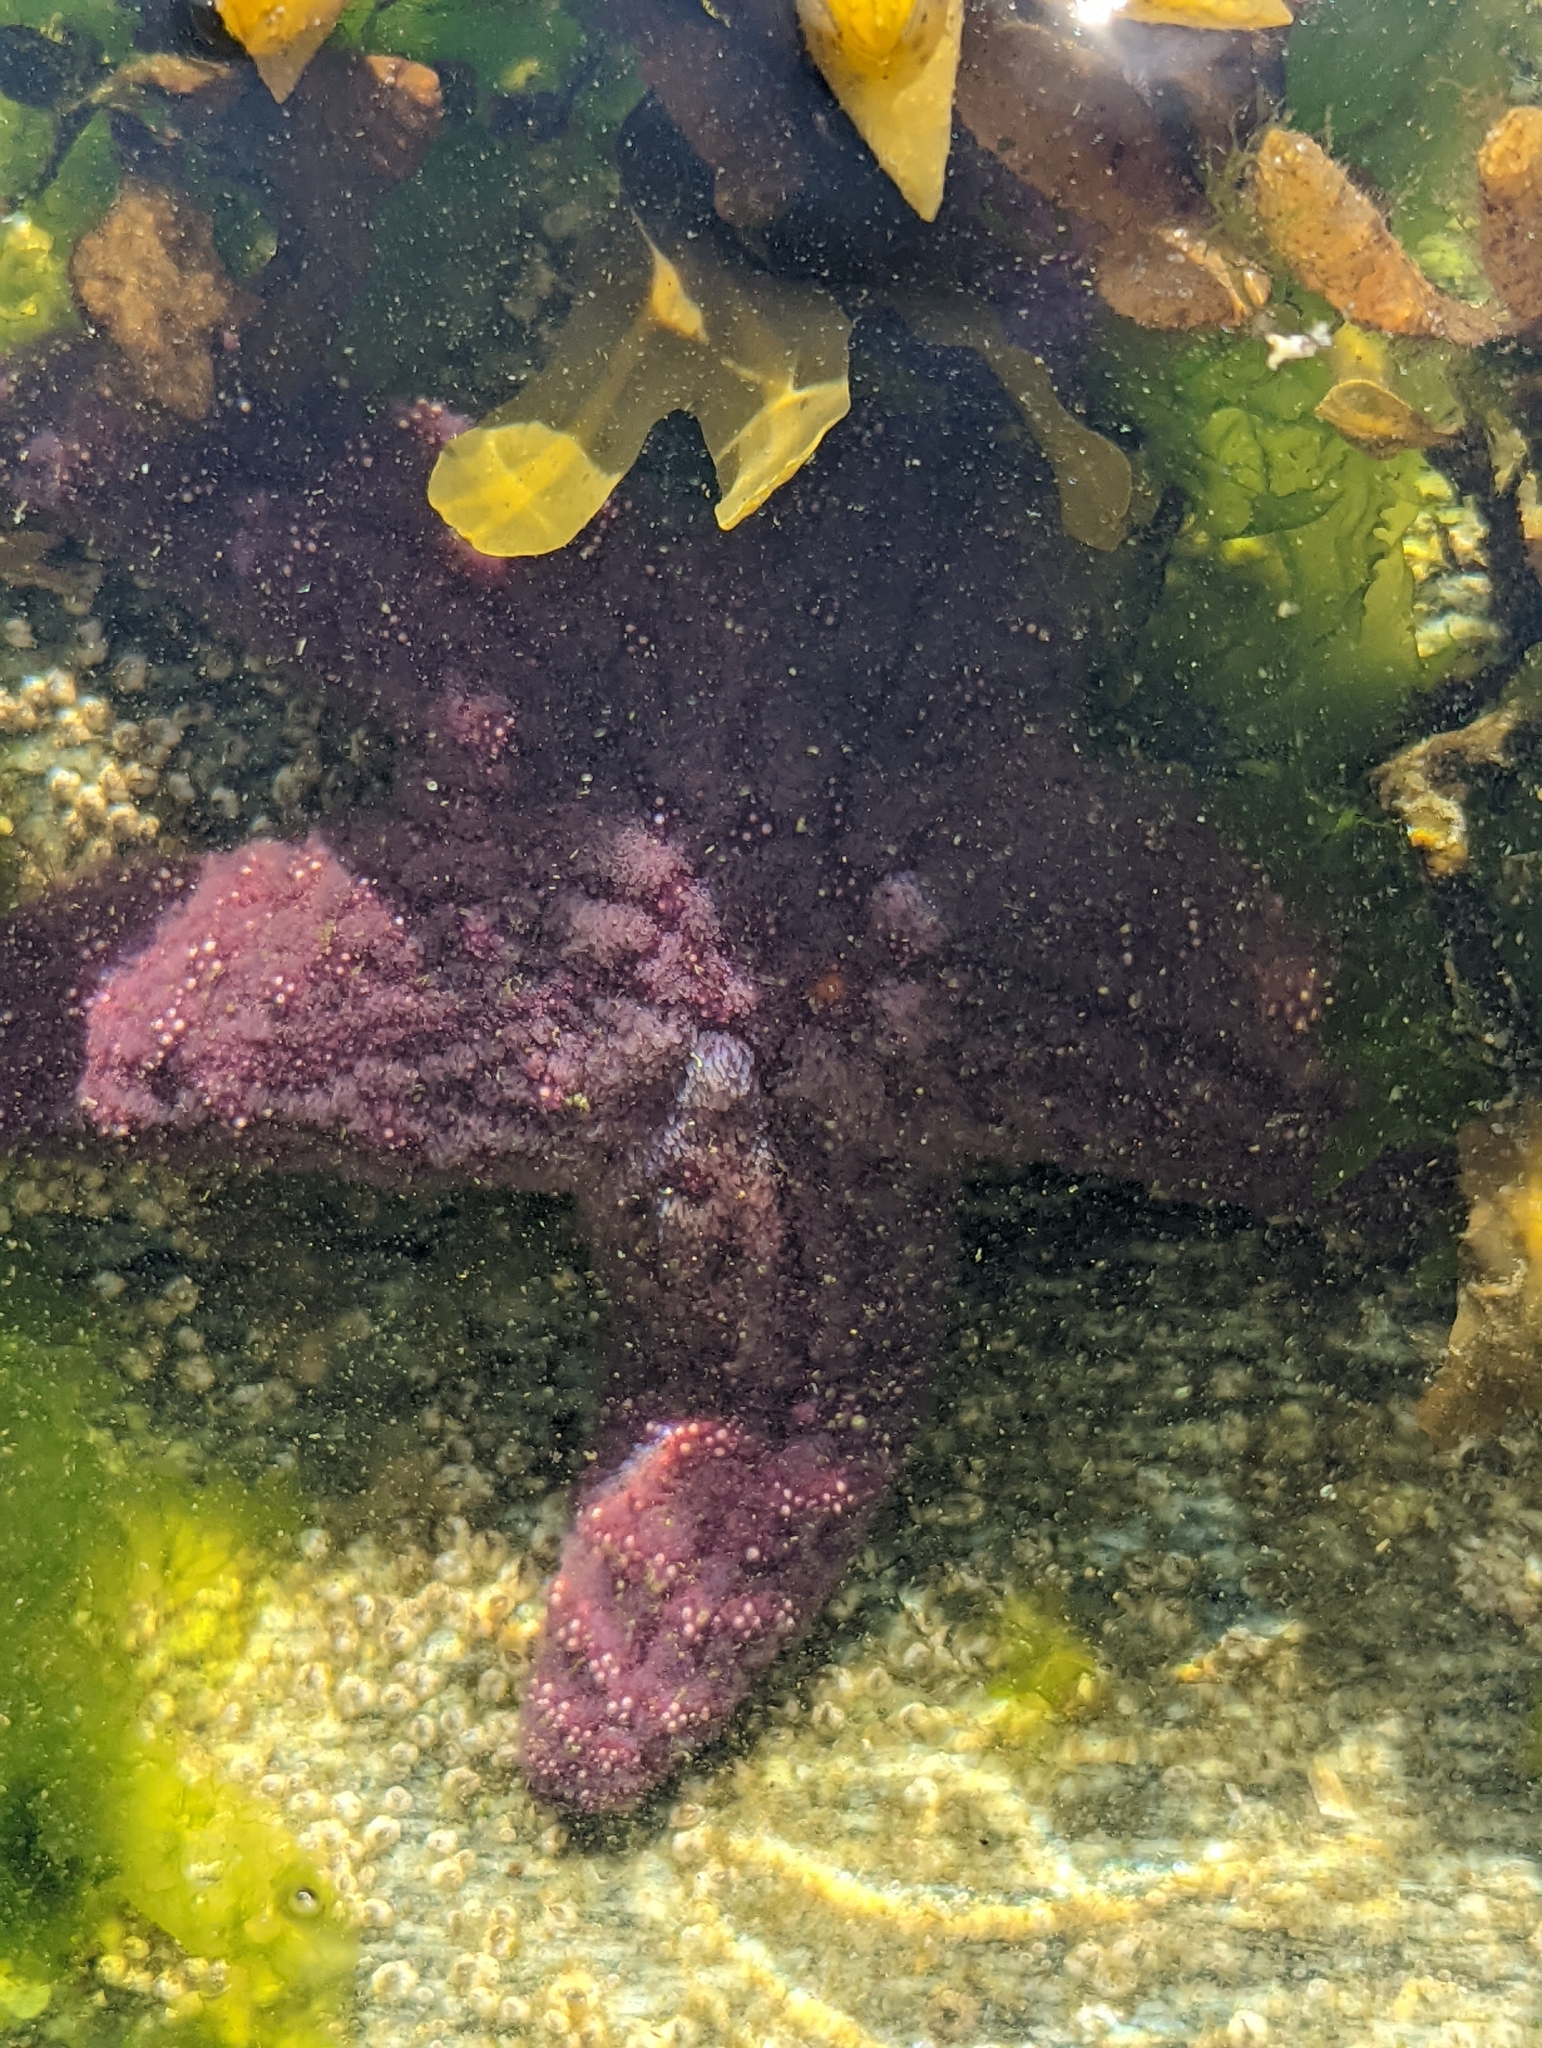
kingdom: Animalia
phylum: Echinodermata
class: Asteroidea
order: Forcipulatida
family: Asteriidae
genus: Pisaster
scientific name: Pisaster ochraceus
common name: Ochre stars
